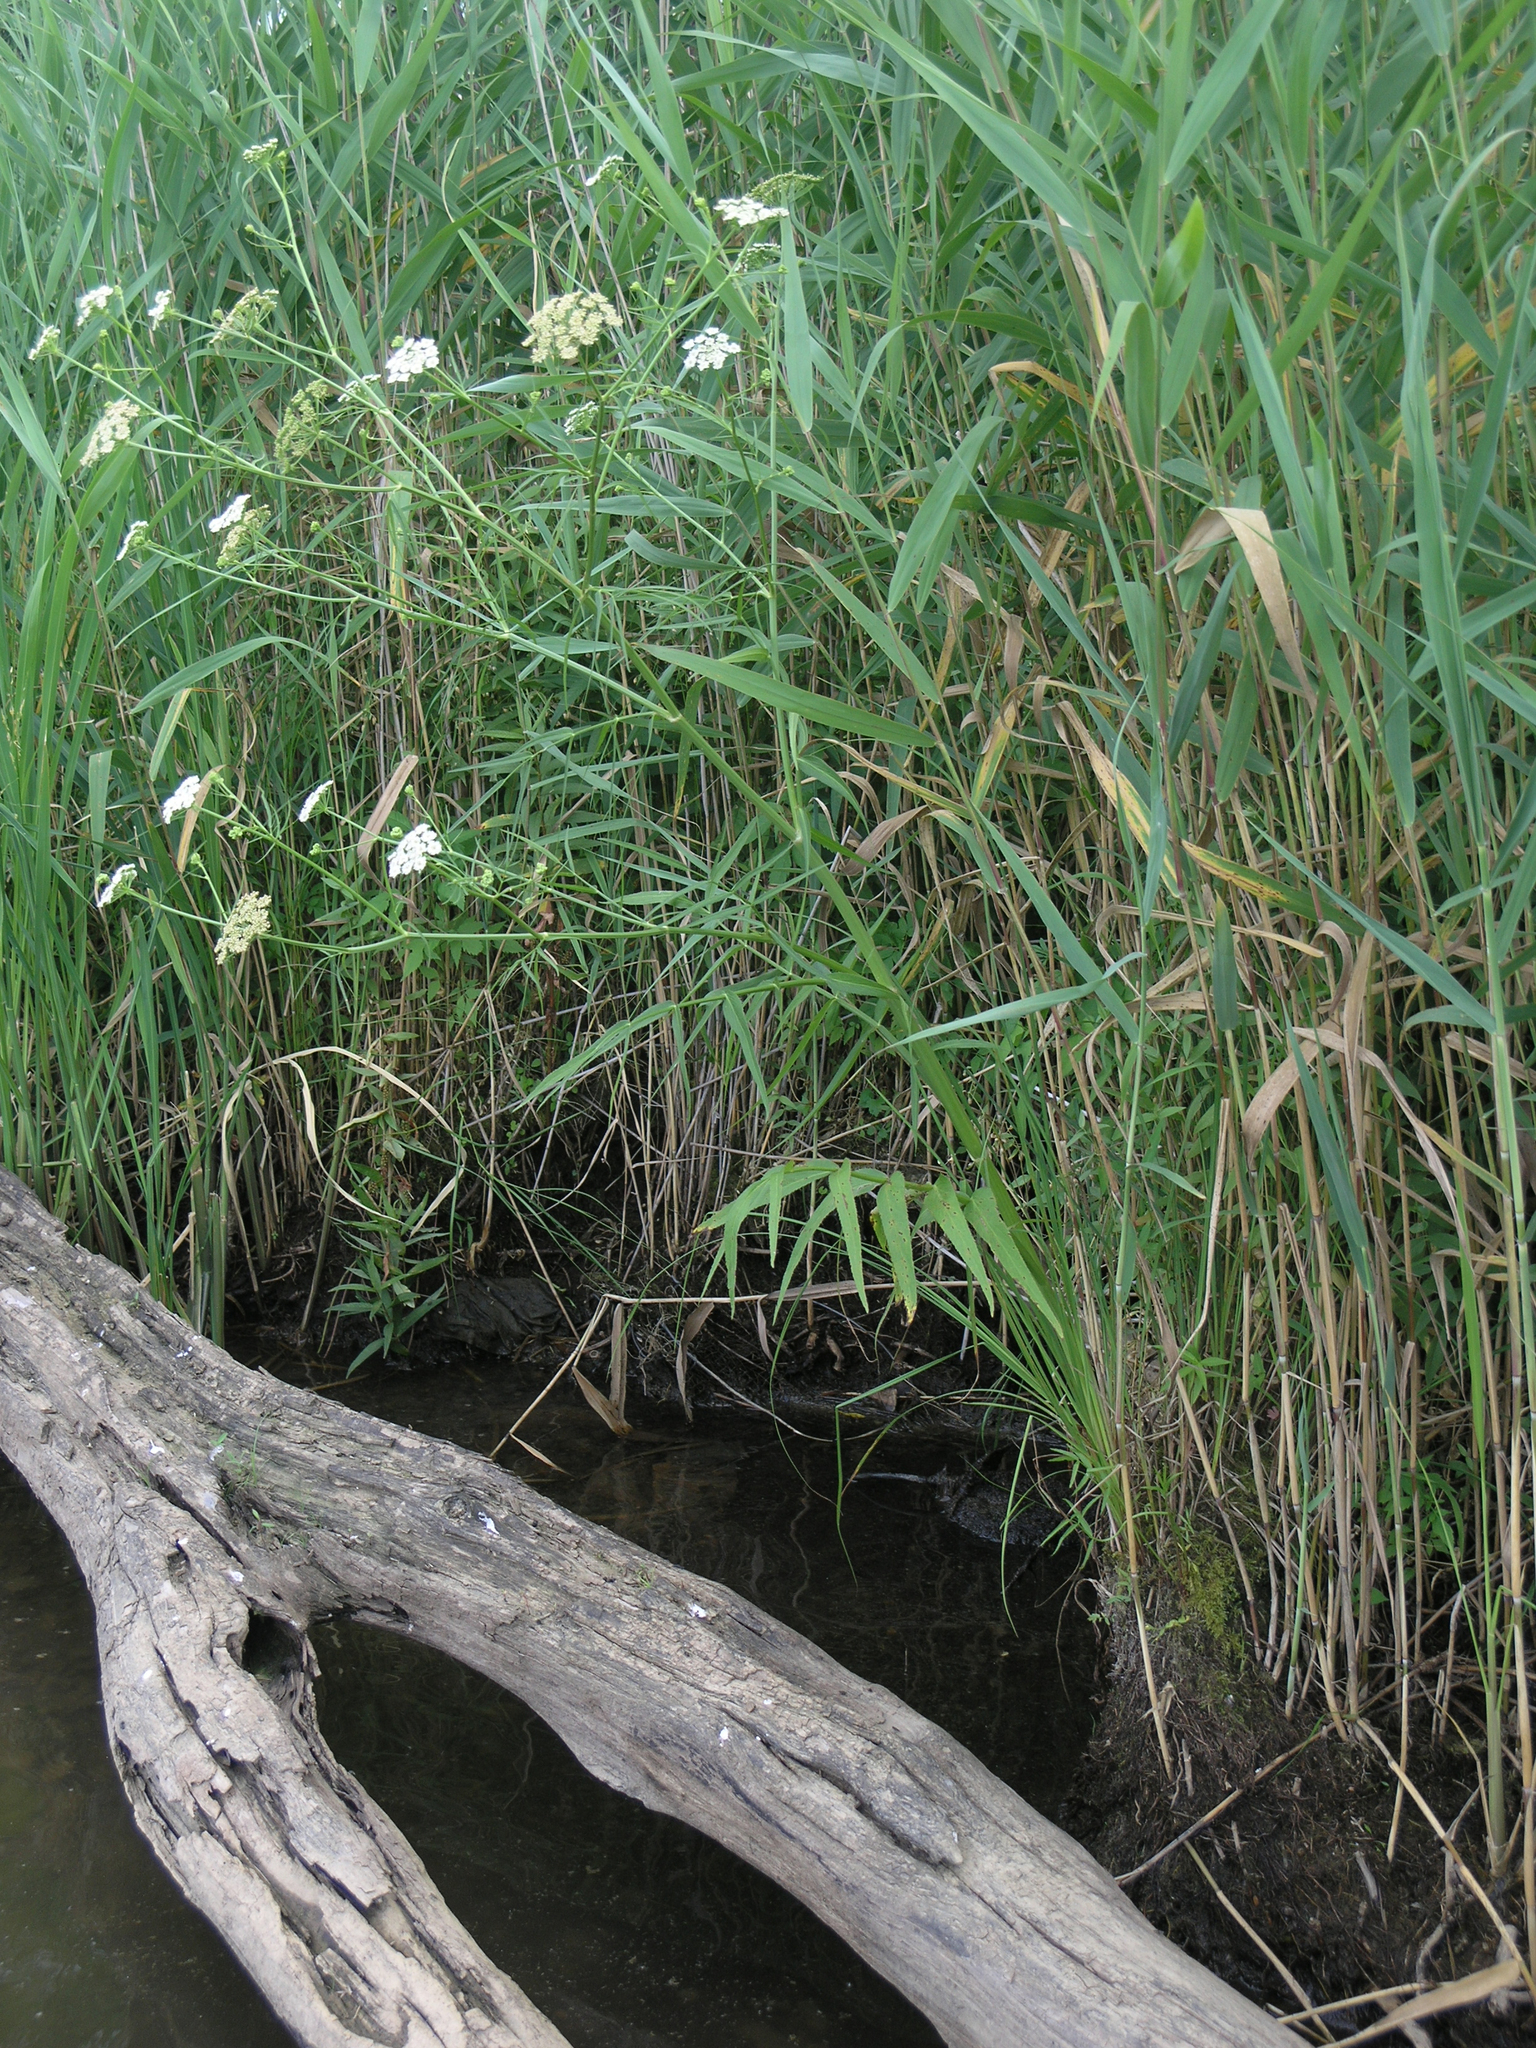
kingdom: Plantae
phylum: Tracheophyta
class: Magnoliopsida
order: Apiales
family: Apiaceae
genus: Sium
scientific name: Sium suave
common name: Hemlock water-parsnip
